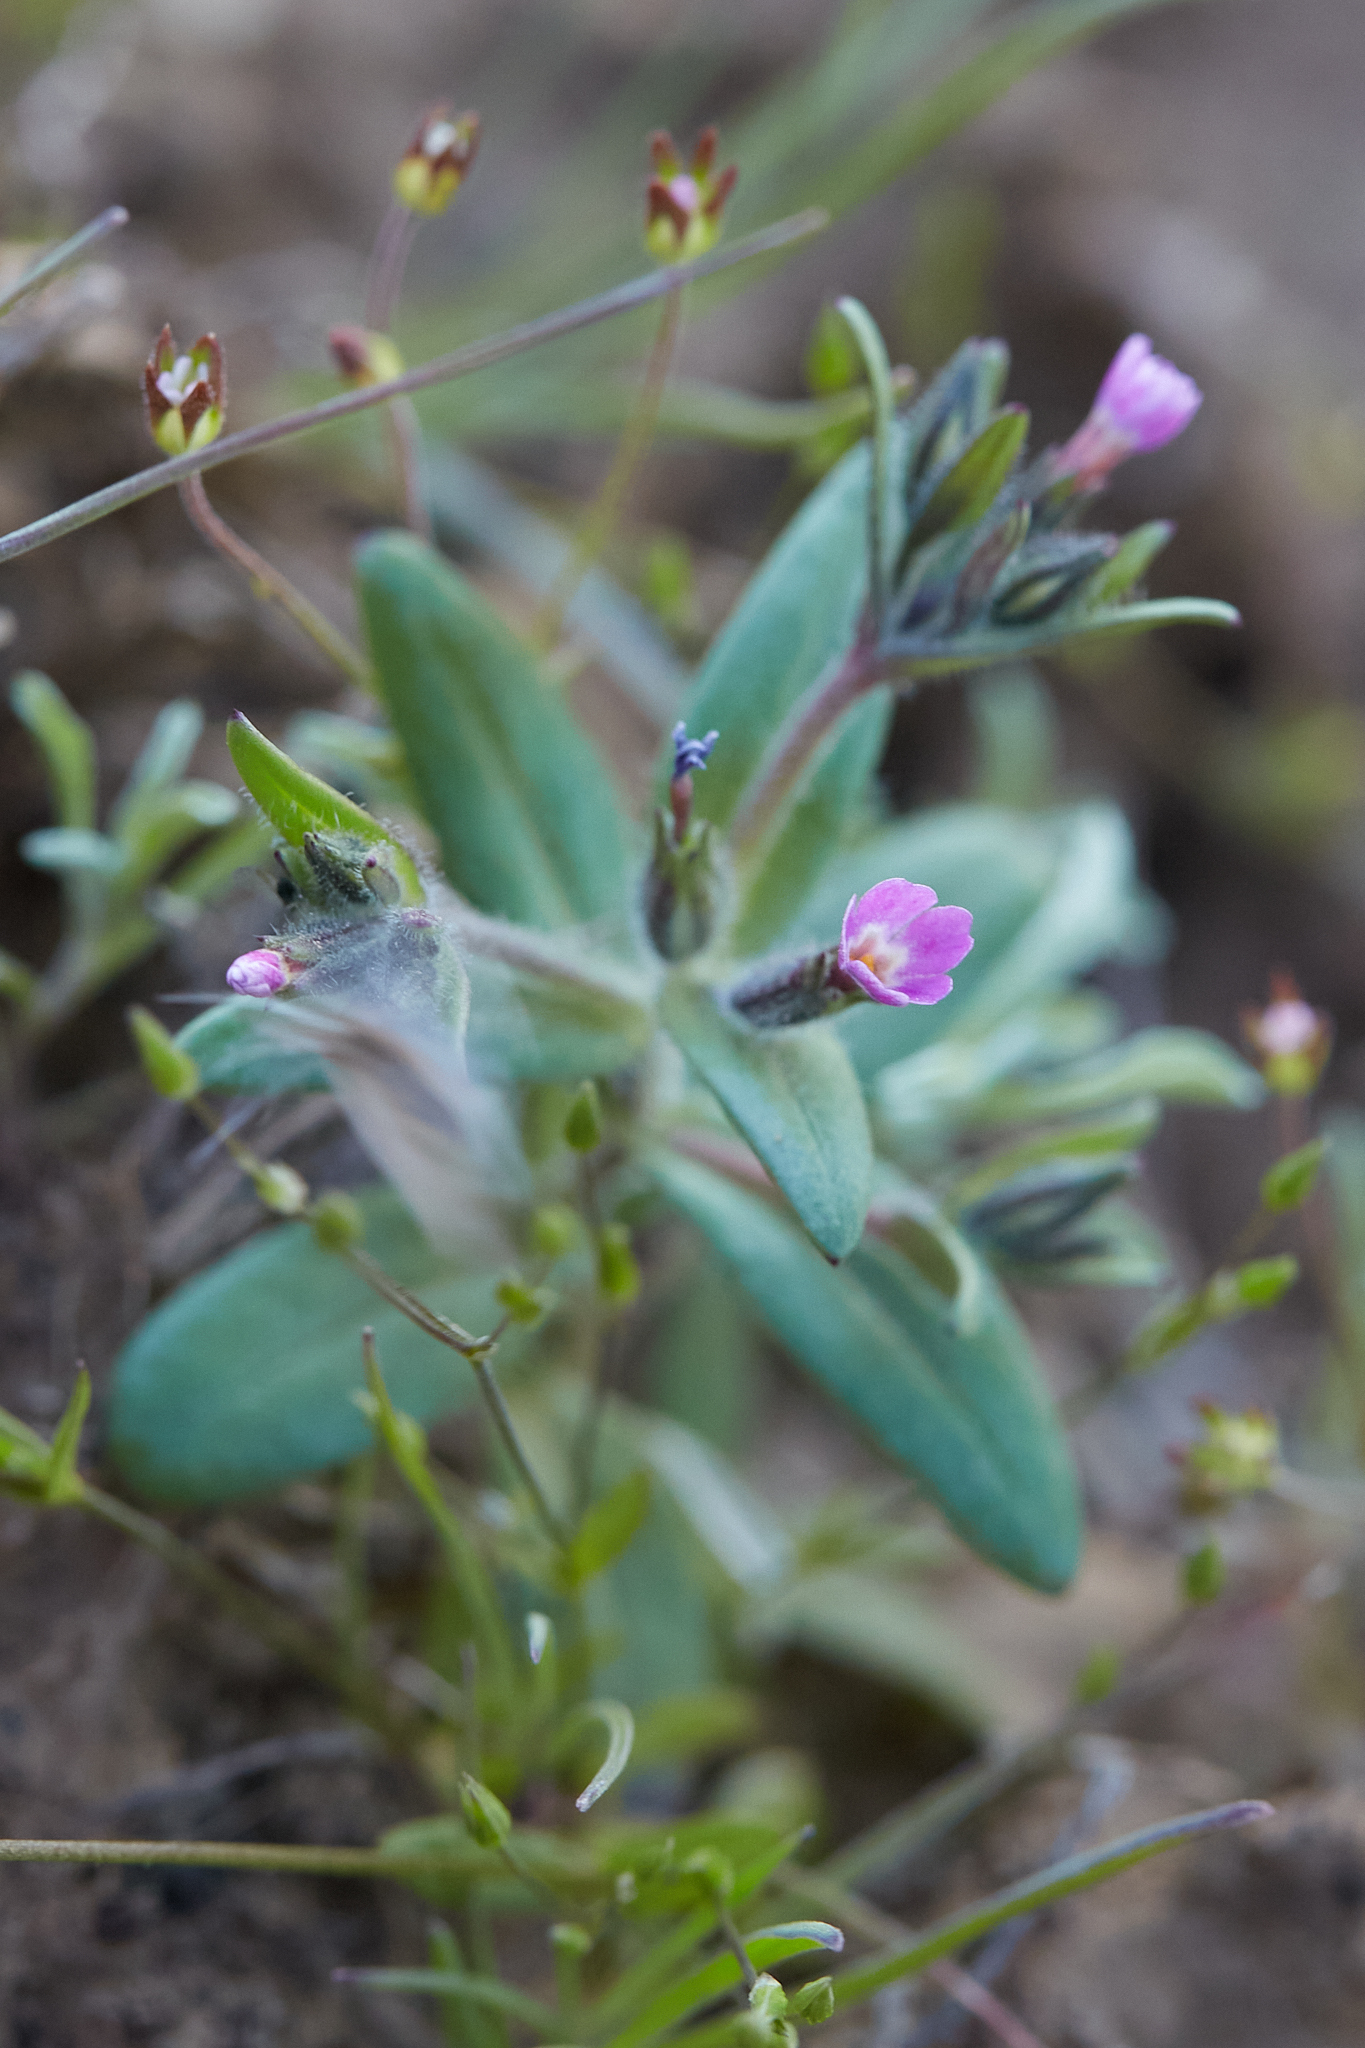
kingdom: Plantae
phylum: Tracheophyta
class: Magnoliopsida
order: Ericales
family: Polemoniaceae
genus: Phlox
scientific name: Phlox gracilis
